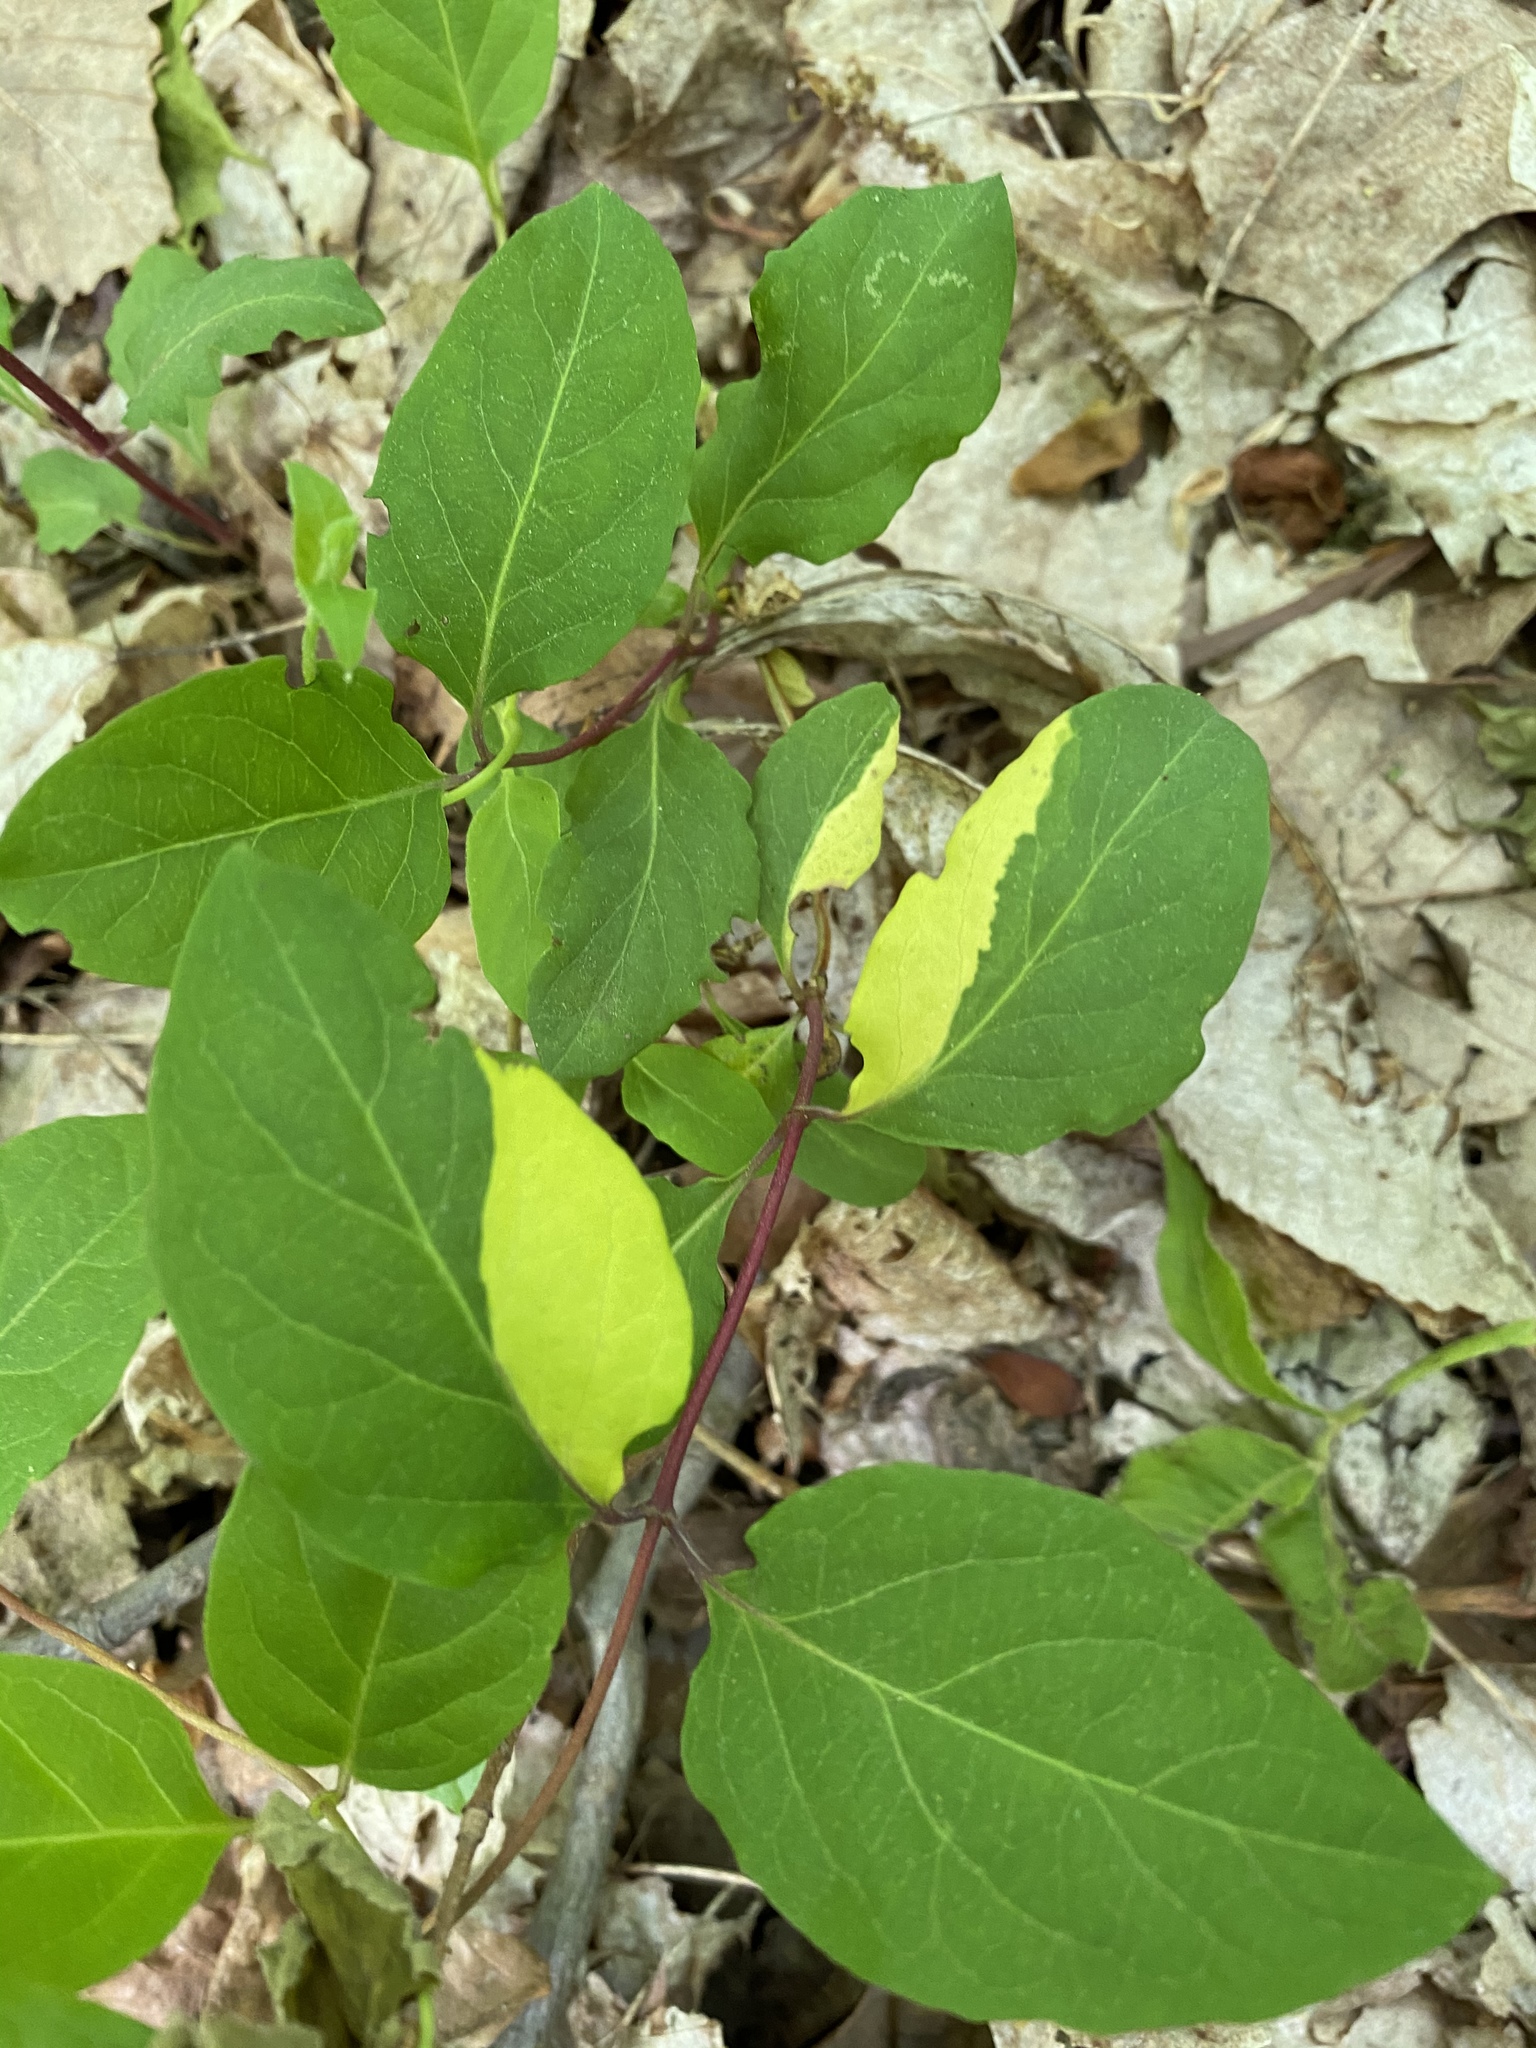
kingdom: Plantae
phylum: Tracheophyta
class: Magnoliopsida
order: Dipsacales
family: Caprifoliaceae
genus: Lonicera
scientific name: Lonicera japonica
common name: Japanese honeysuckle
